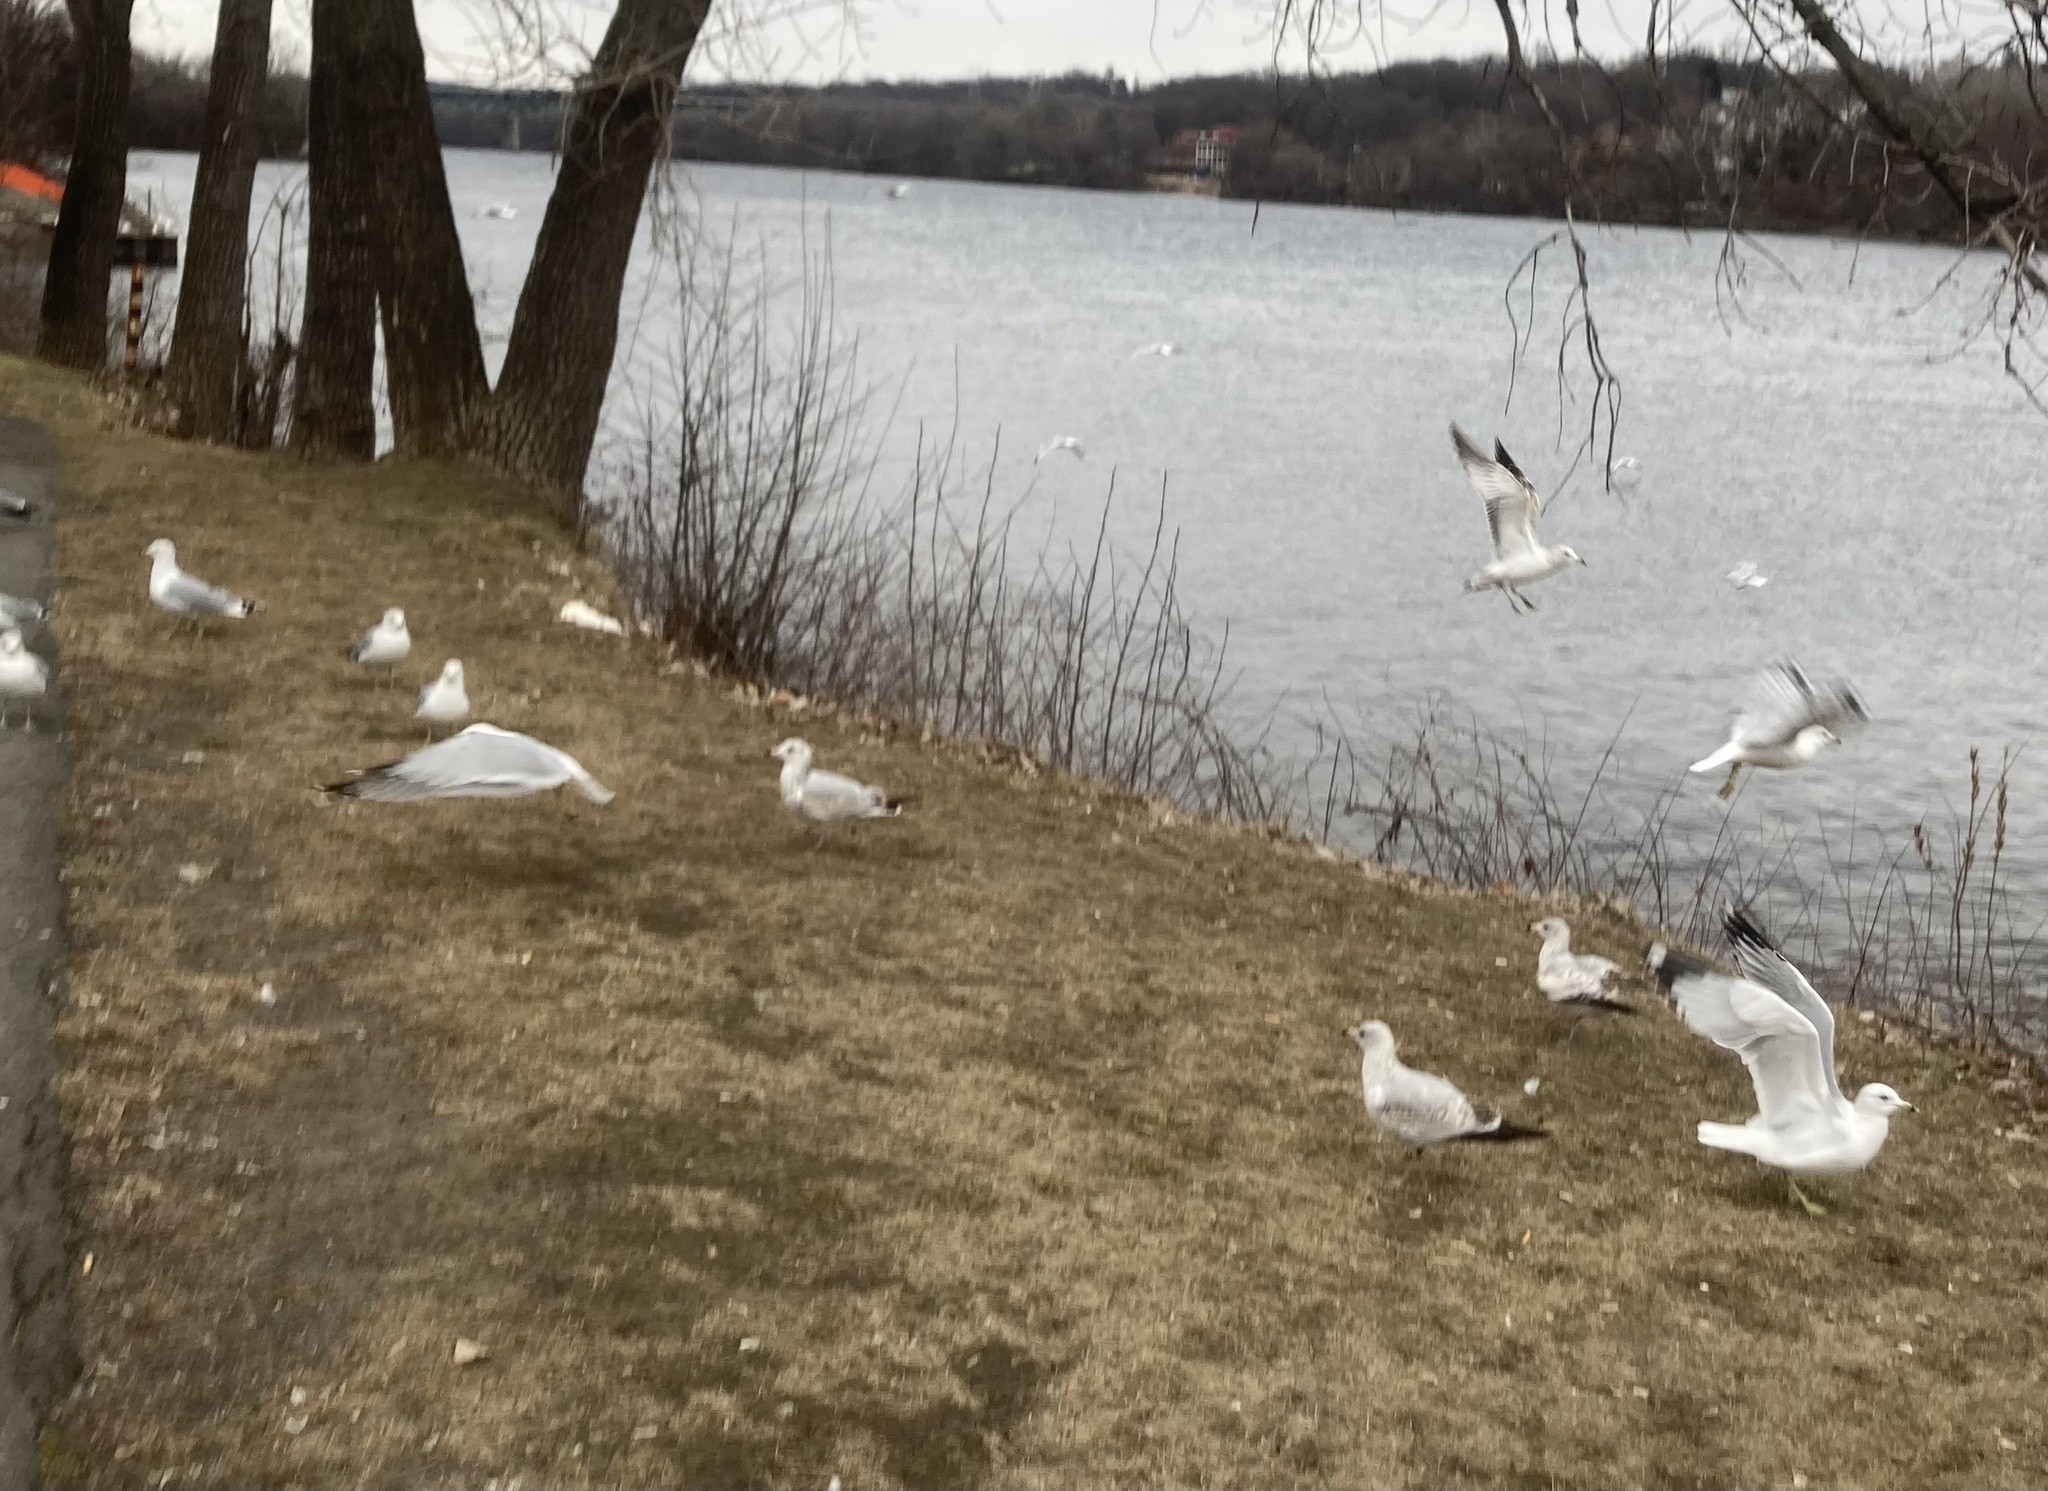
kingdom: Animalia
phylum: Chordata
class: Aves
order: Charadriiformes
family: Laridae
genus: Larus
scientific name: Larus delawarensis
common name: Ring-billed gull
